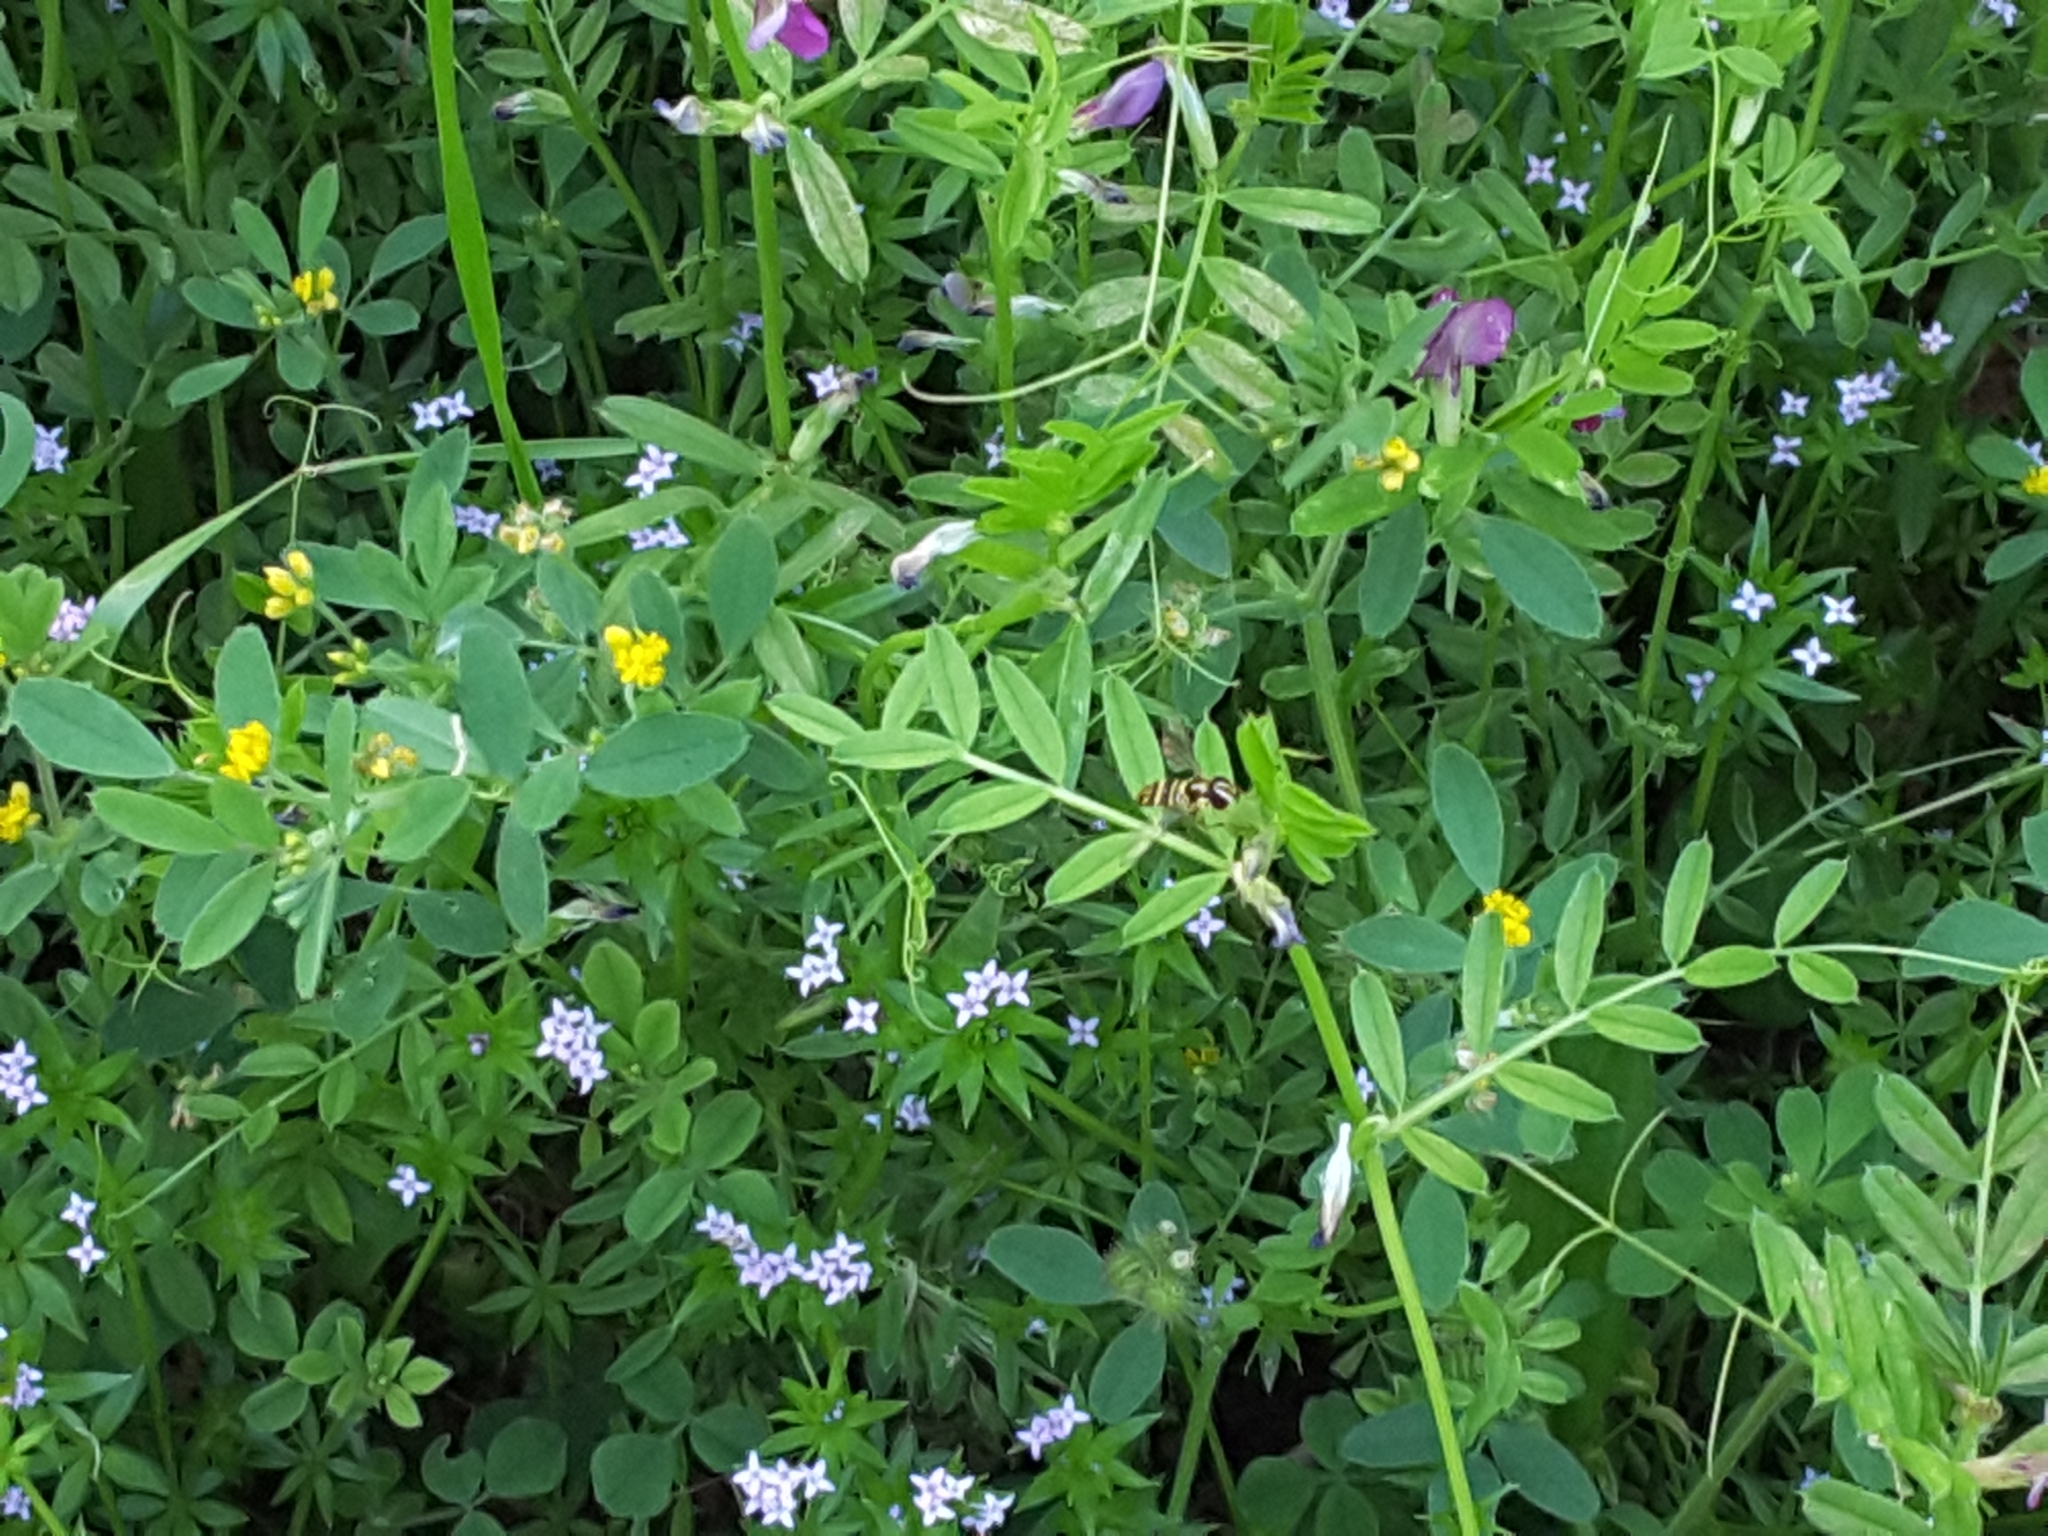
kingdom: Animalia
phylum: Arthropoda
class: Insecta
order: Diptera
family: Syrphidae
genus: Allograpta
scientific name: Allograpta
